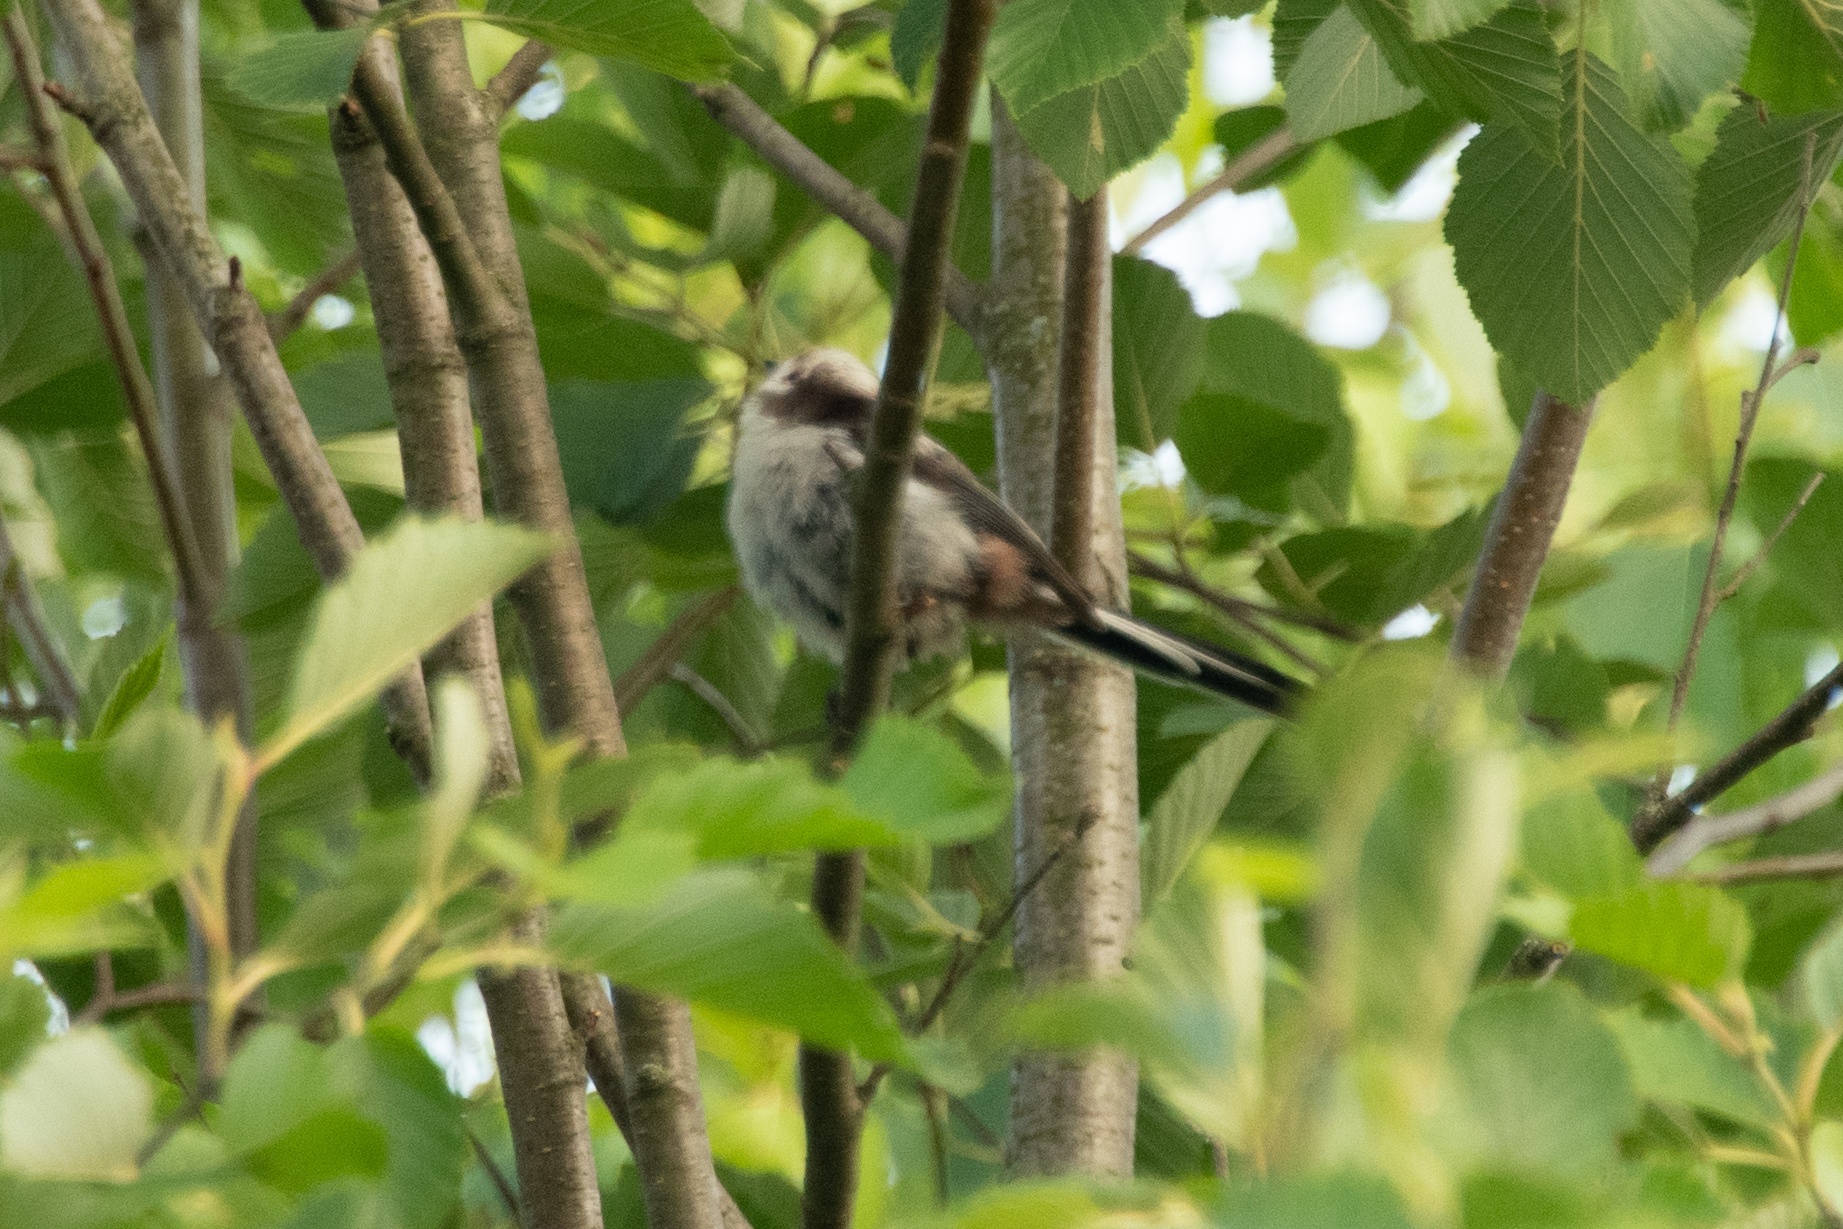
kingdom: Animalia
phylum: Chordata
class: Aves
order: Passeriformes
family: Aegithalidae
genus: Aegithalos
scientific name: Aegithalos caudatus
